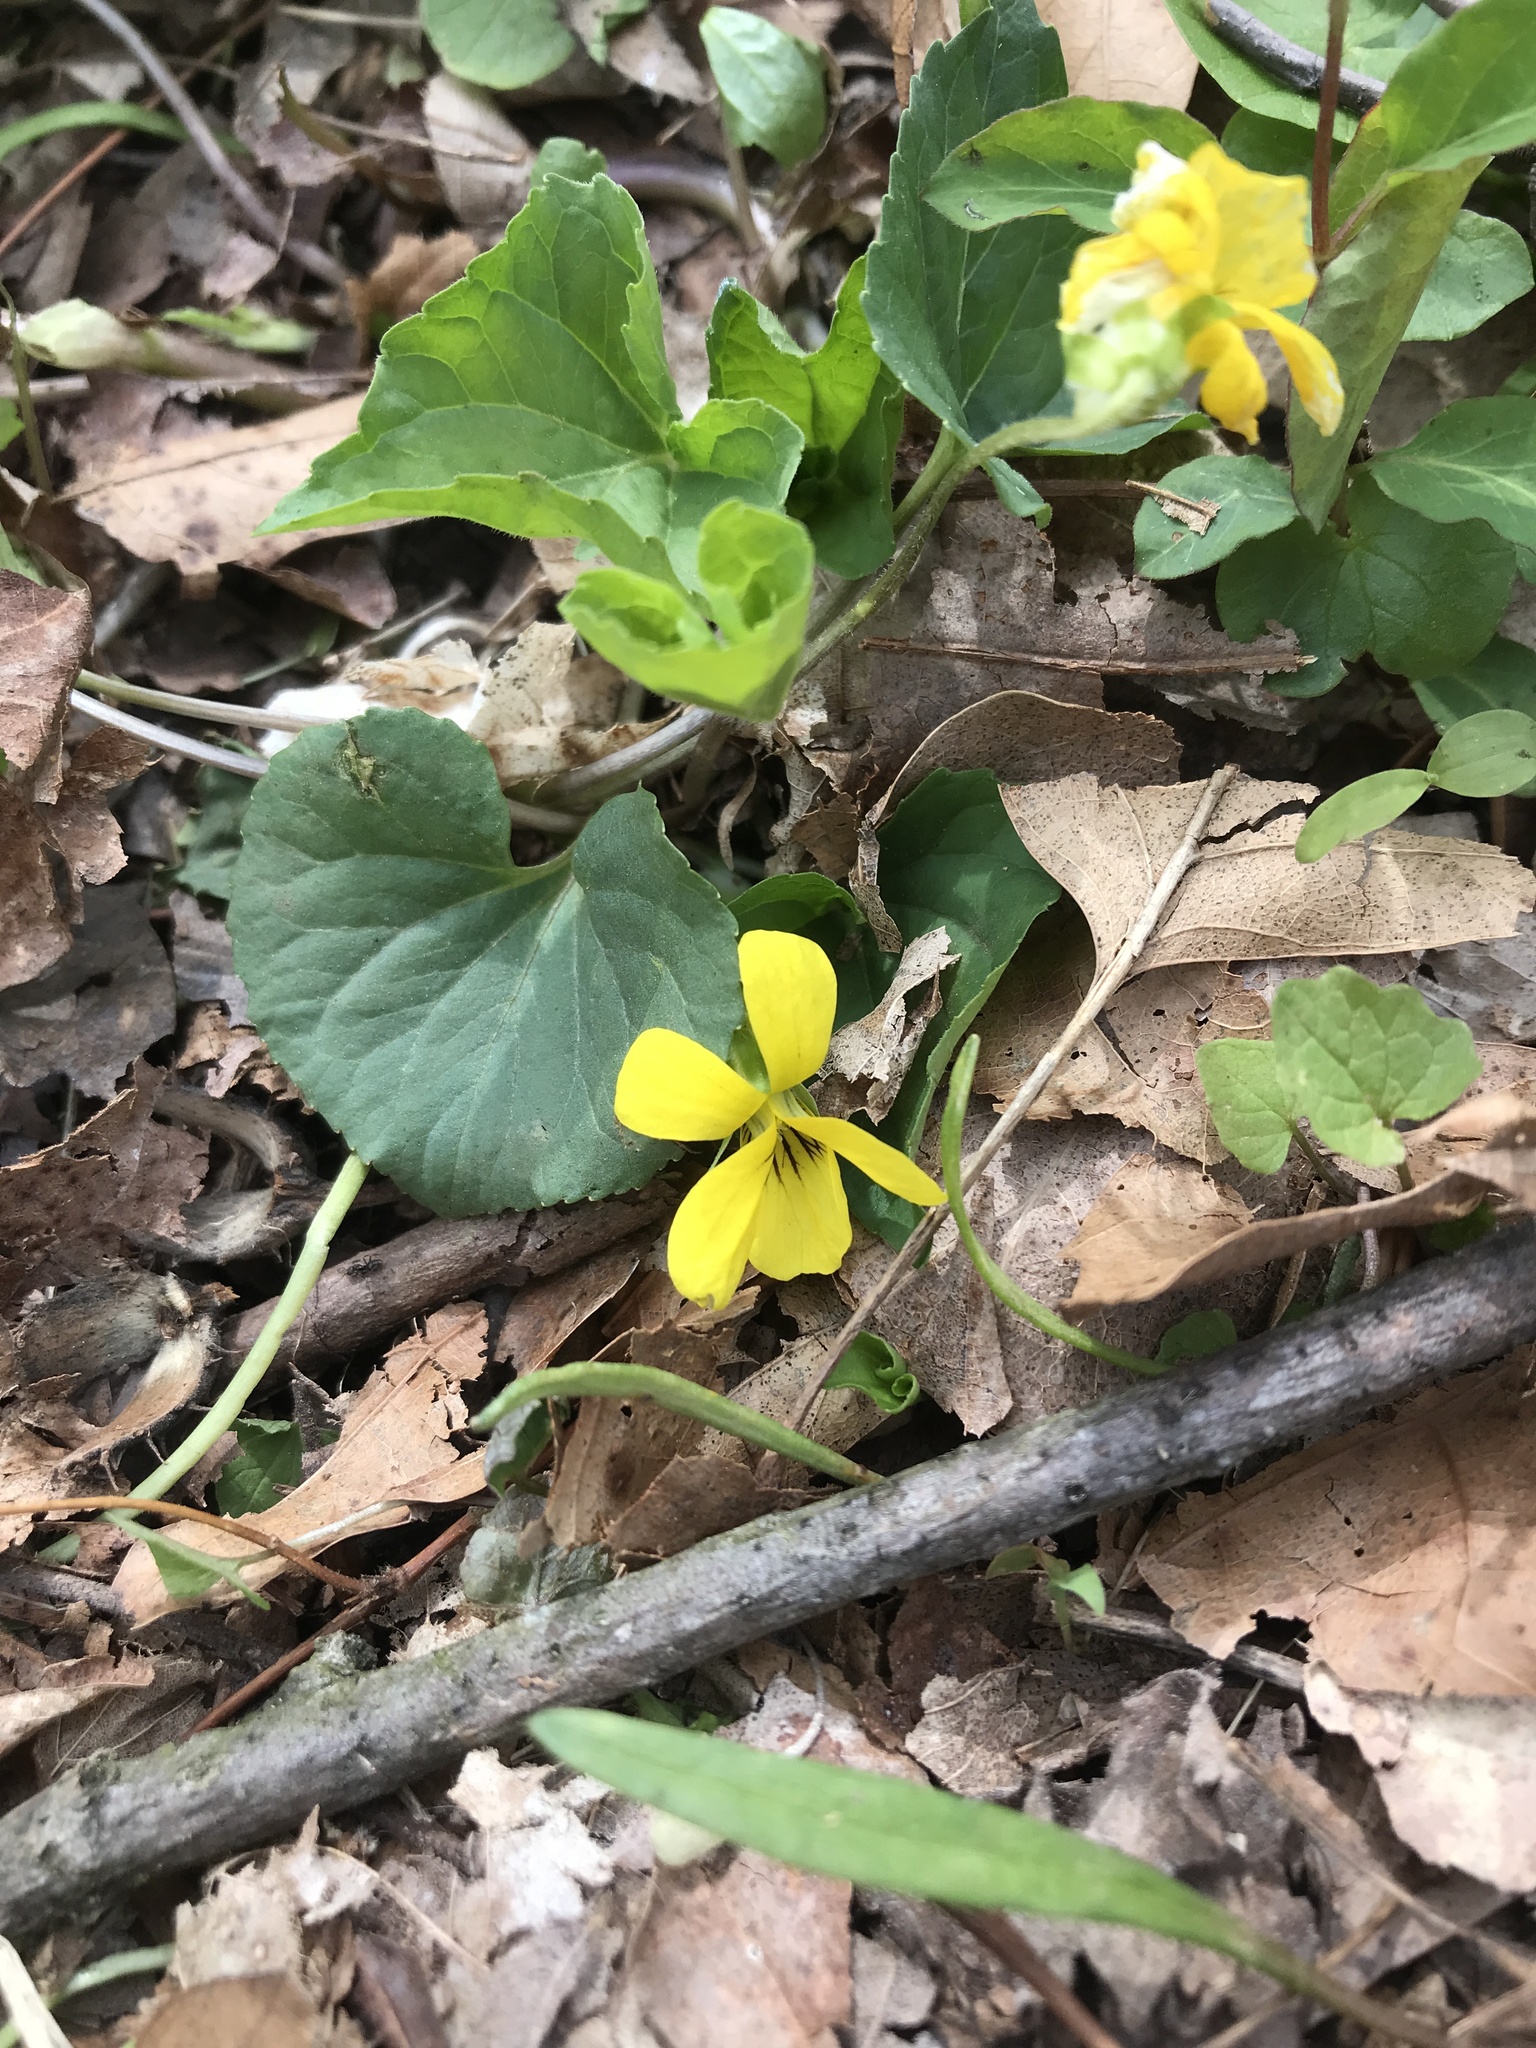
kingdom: Plantae
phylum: Tracheophyta
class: Magnoliopsida
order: Malpighiales
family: Violaceae
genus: Viola
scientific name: Viola eriocarpa
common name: Smooth yellow violet
